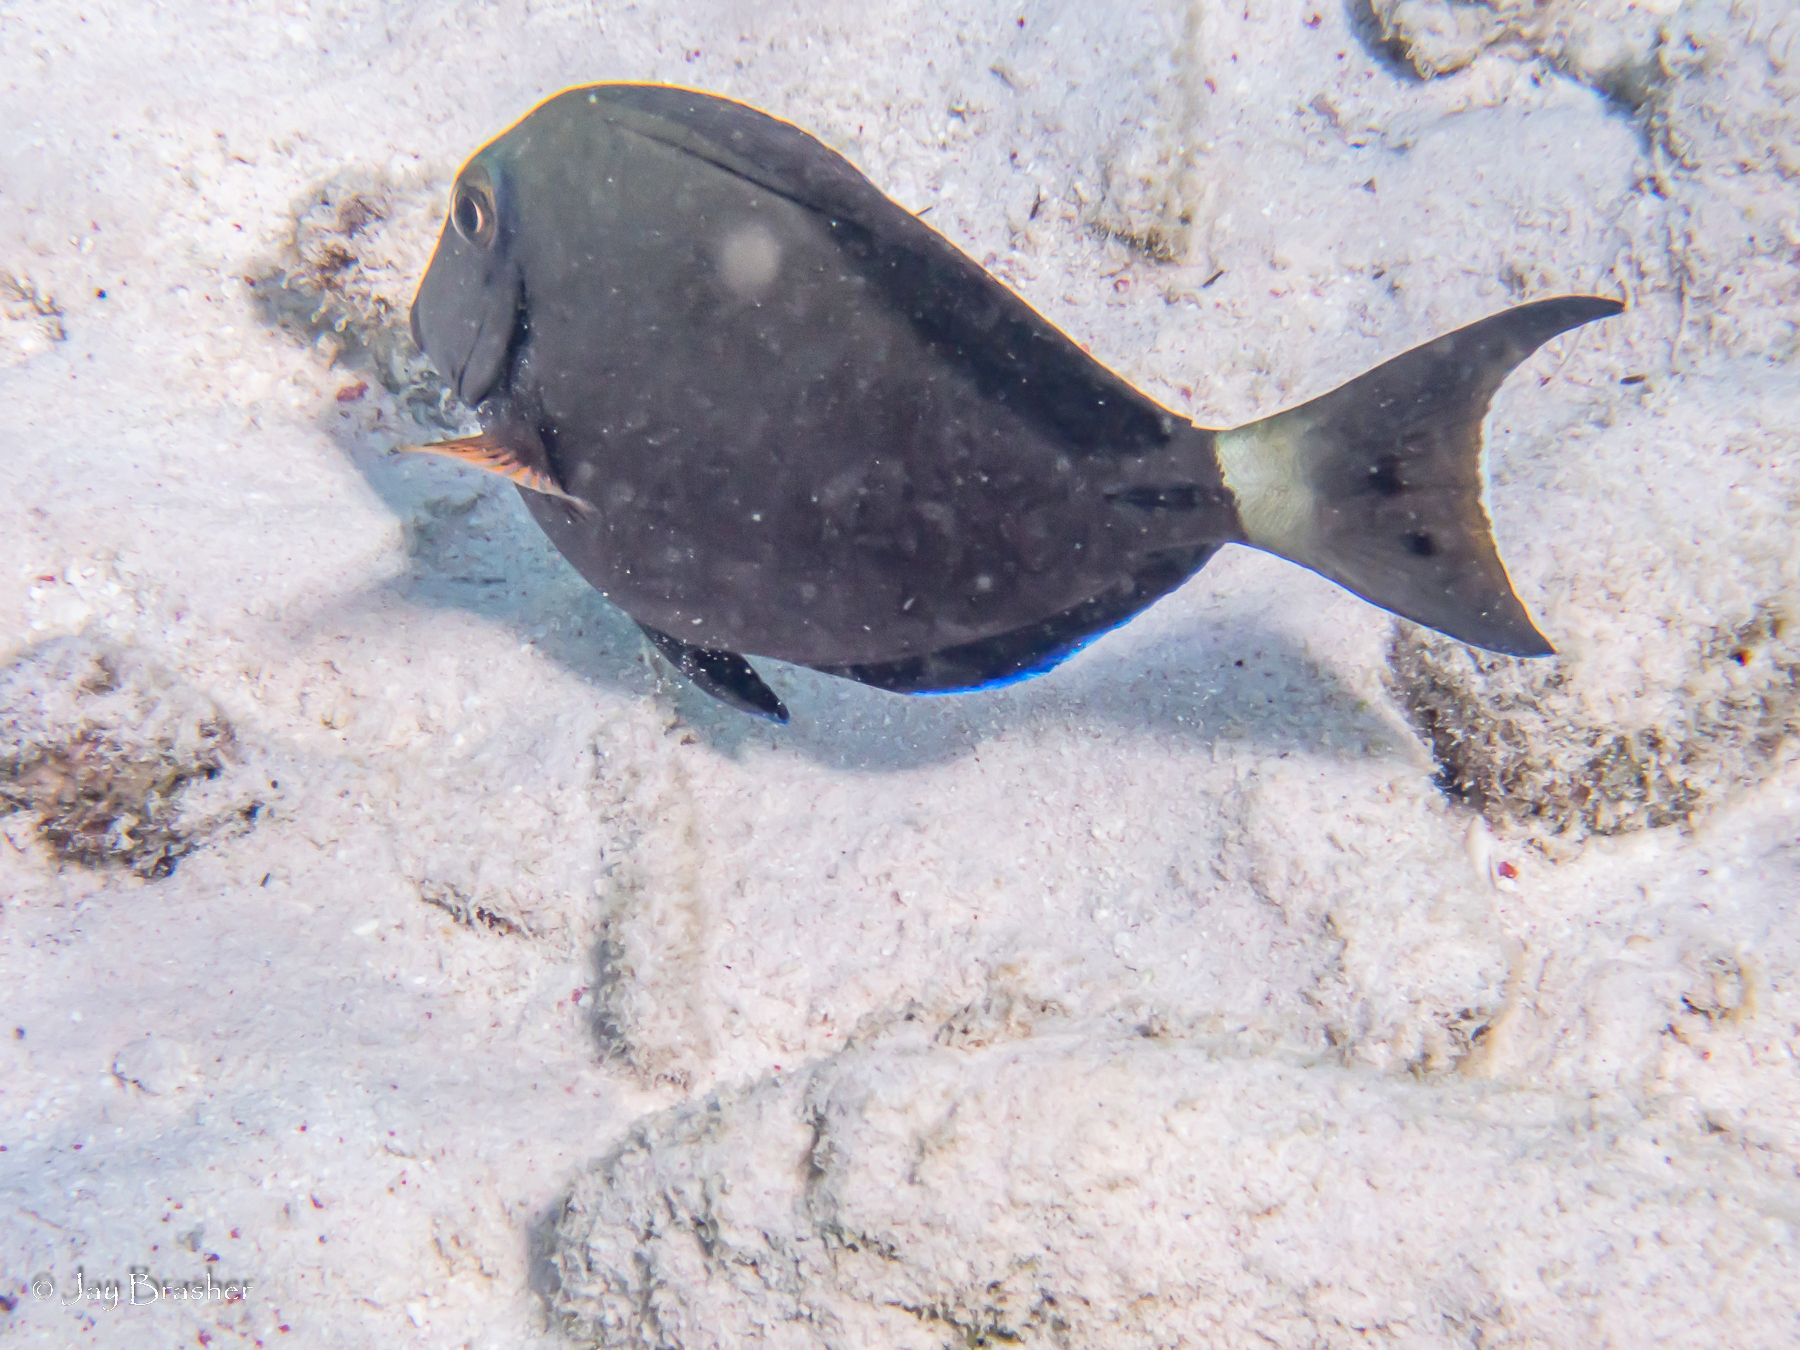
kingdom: Animalia
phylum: Chordata
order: Perciformes
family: Acanthuridae
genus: Acanthurus
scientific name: Acanthurus bahianus
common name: Ocean surgeon
